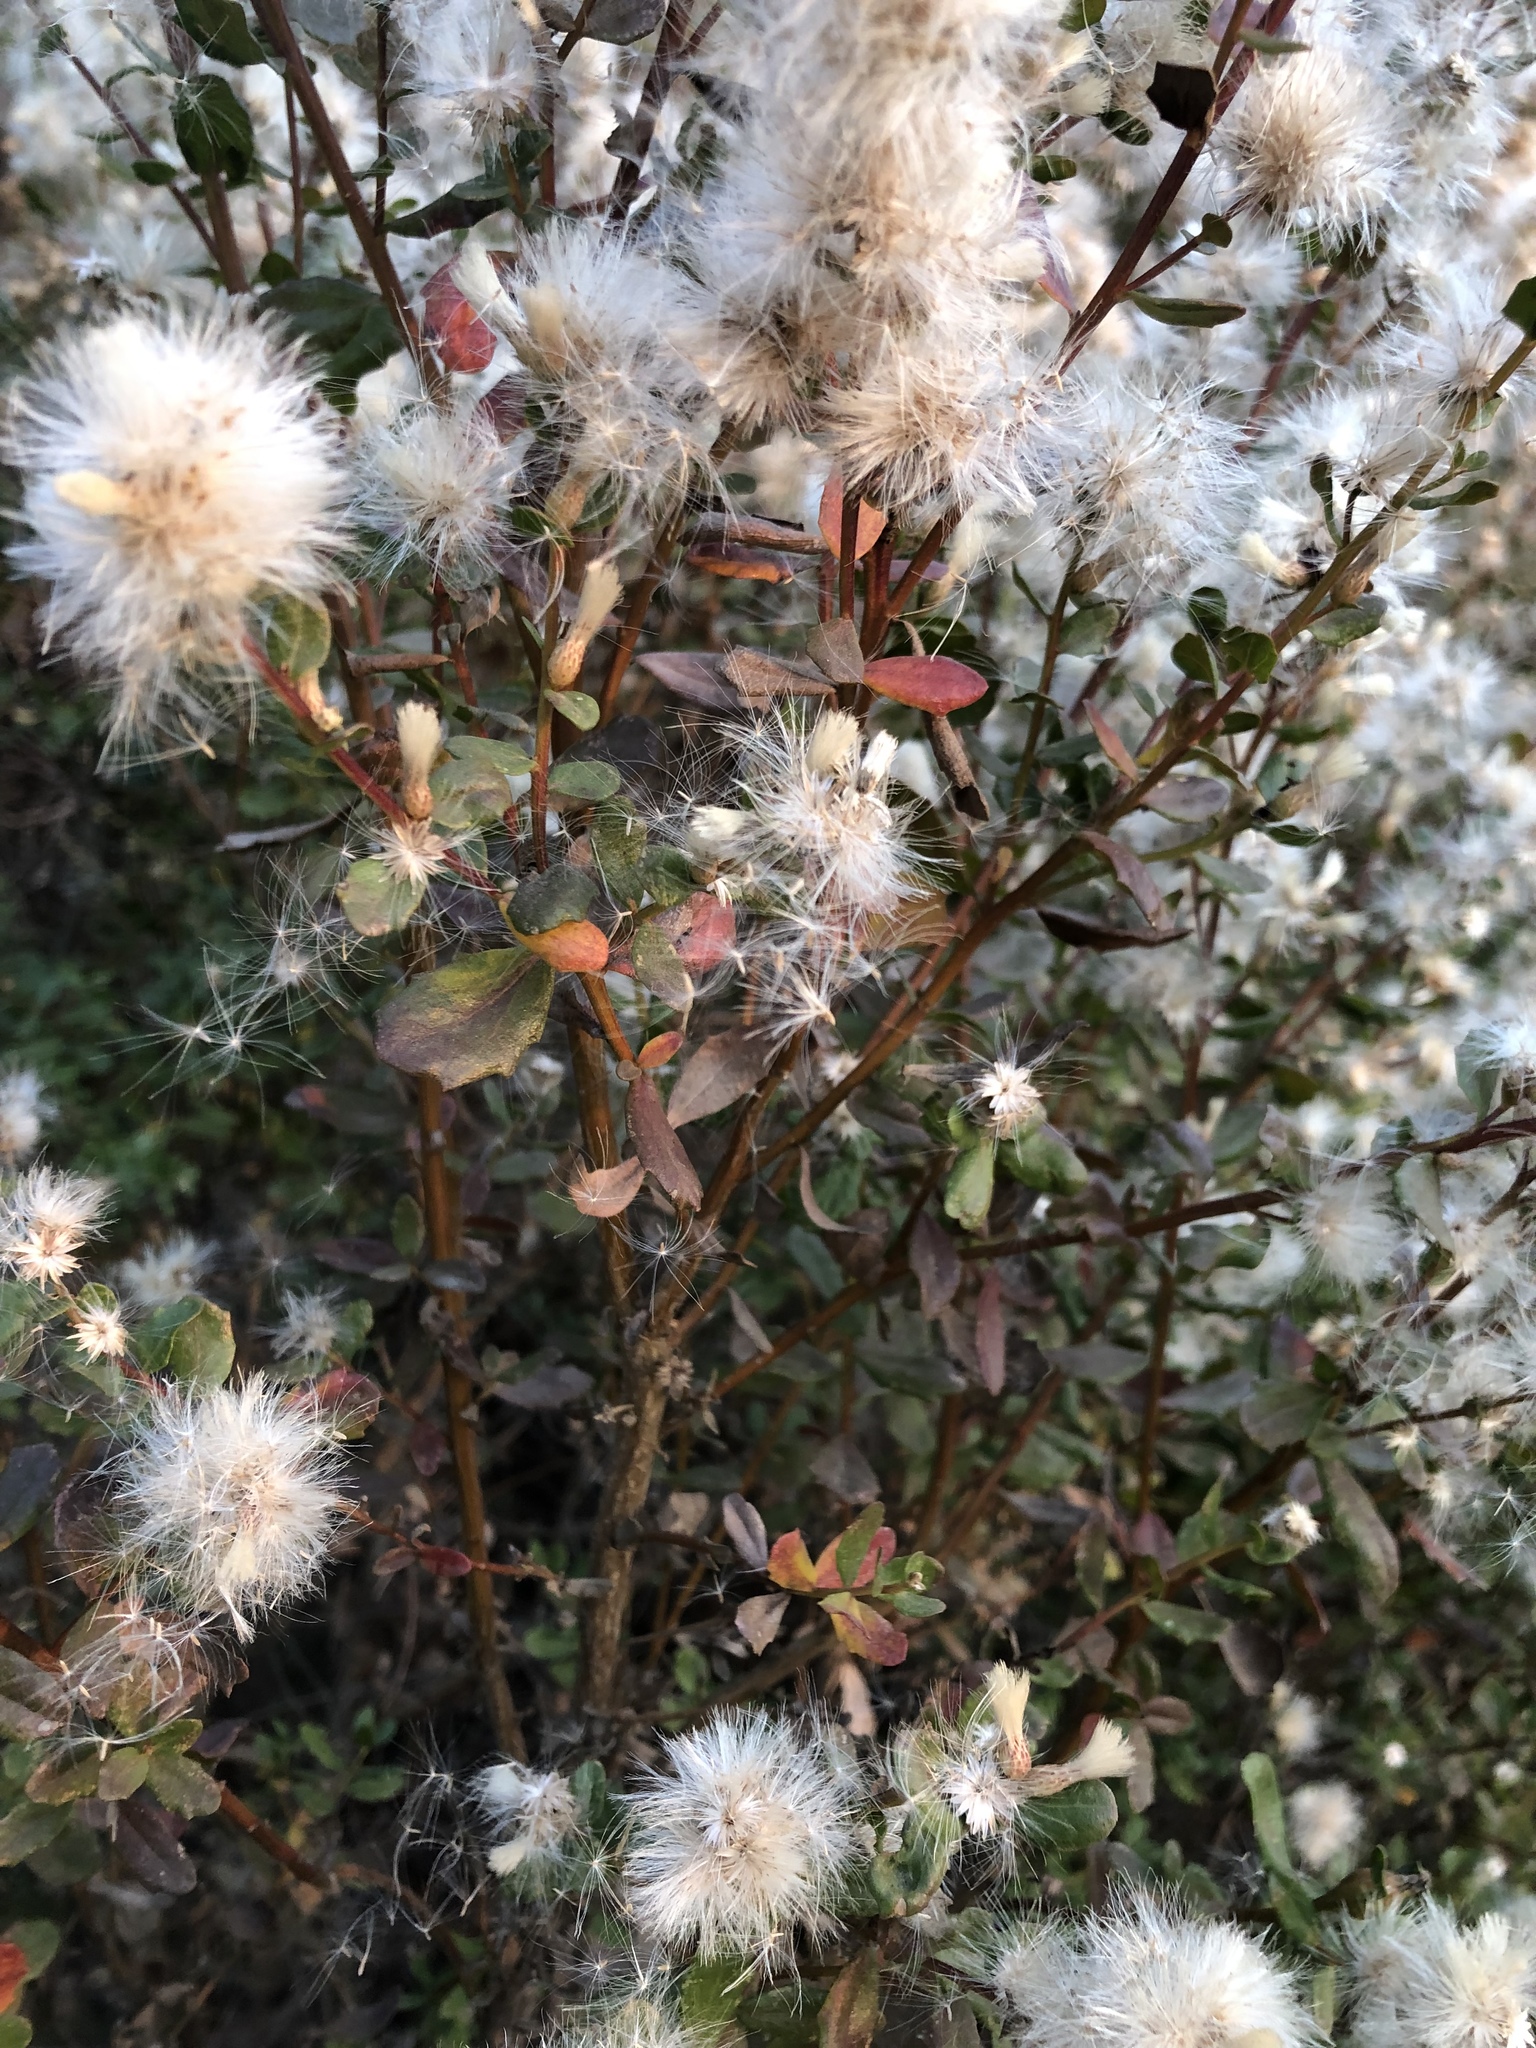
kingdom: Plantae
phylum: Tracheophyta
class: Magnoliopsida
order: Asterales
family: Asteraceae
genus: Baccharis
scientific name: Baccharis pilularis
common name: Coyotebrush
